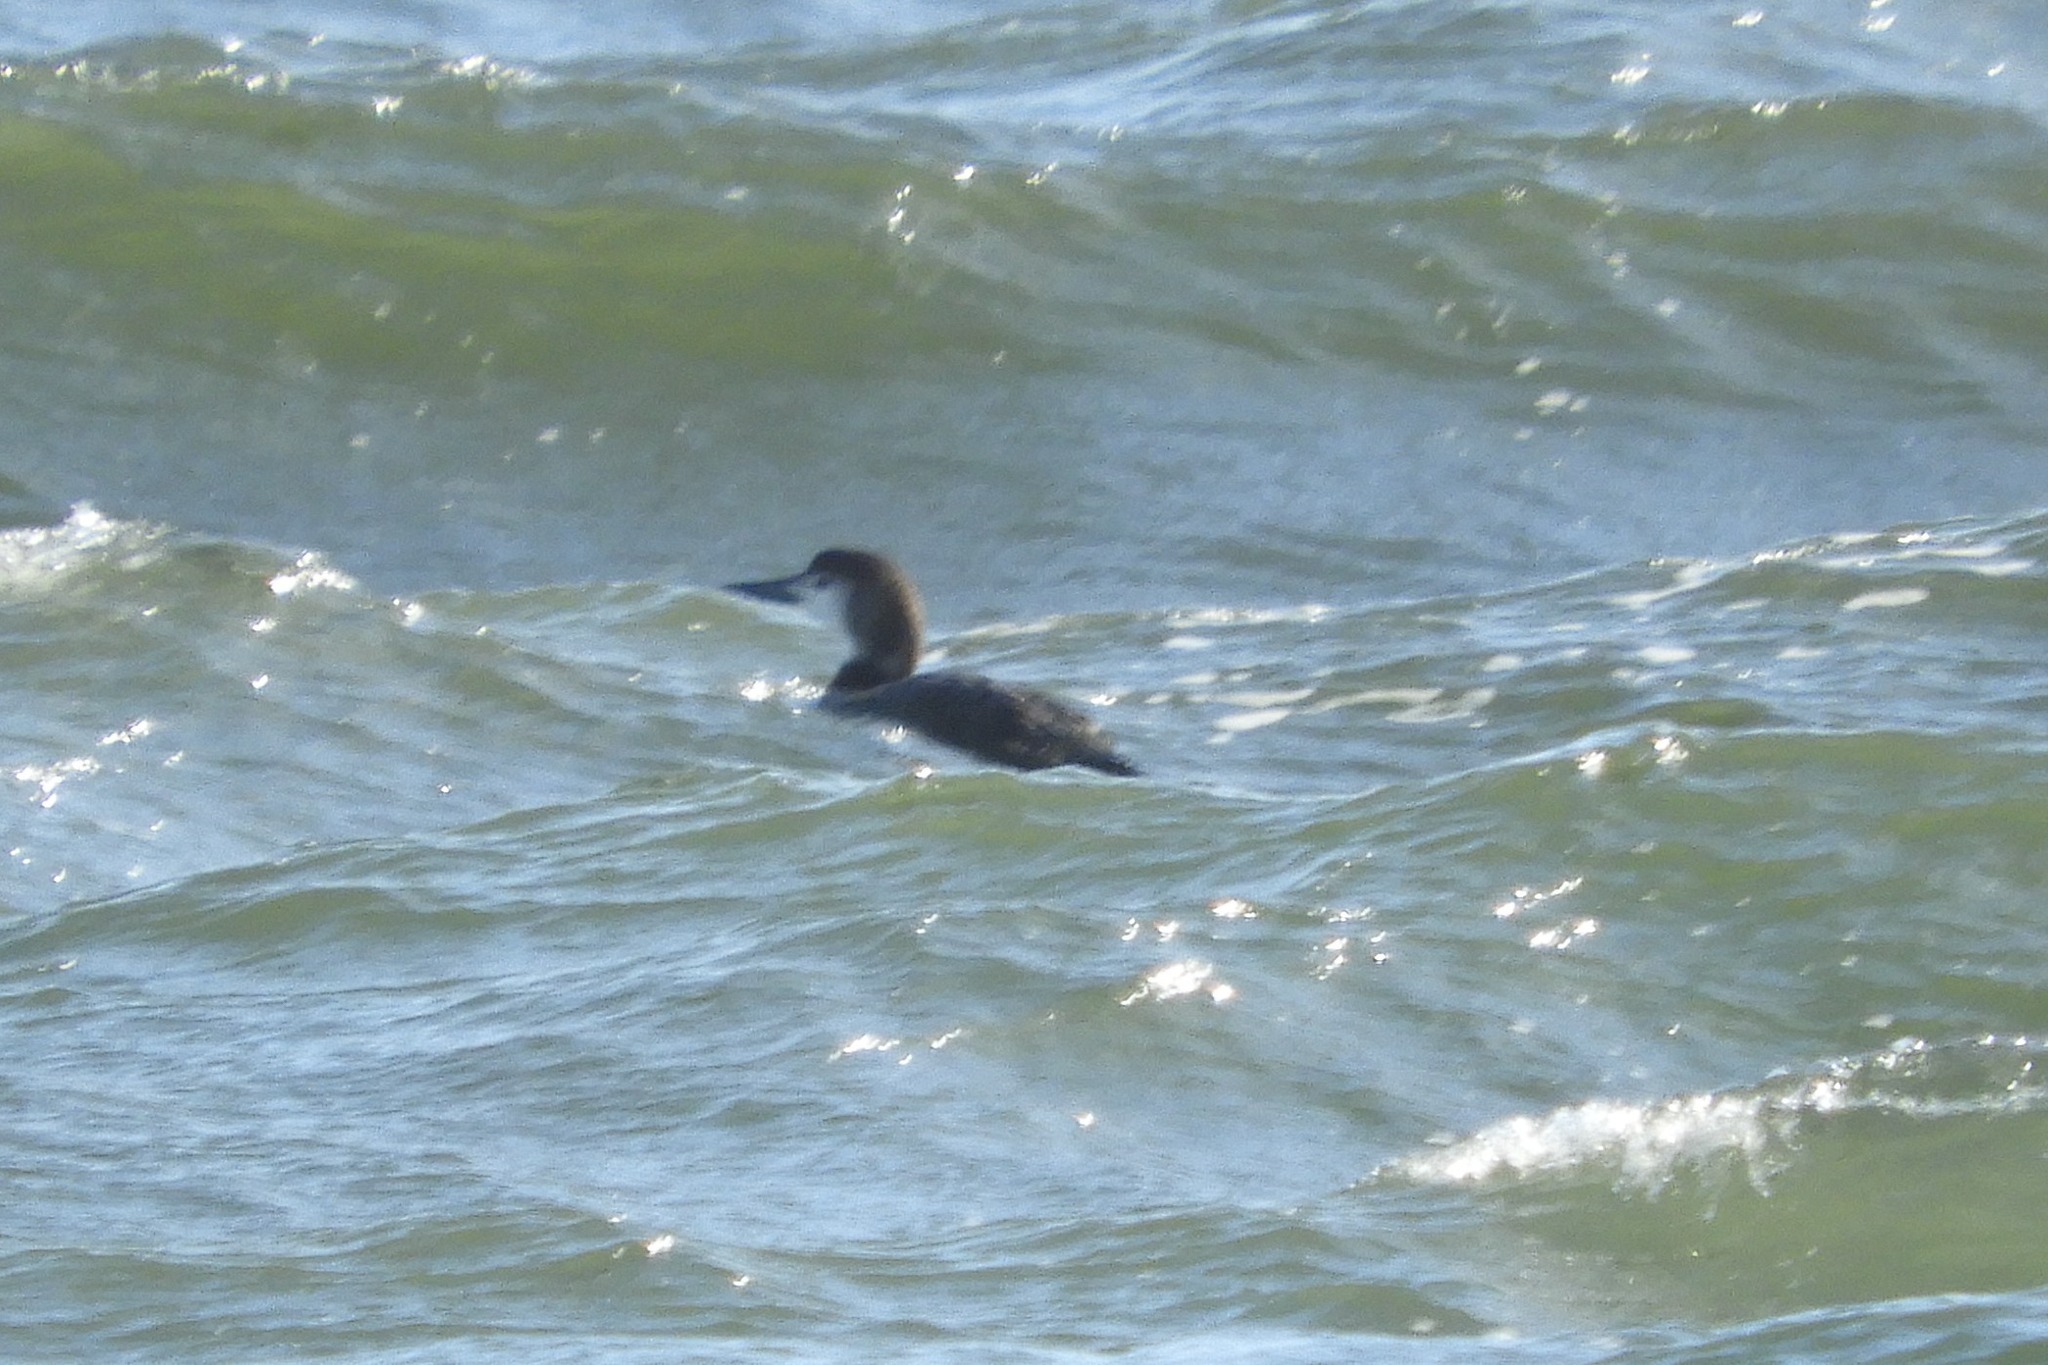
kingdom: Animalia
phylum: Chordata
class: Aves
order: Gaviiformes
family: Gaviidae
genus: Gavia
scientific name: Gavia immer
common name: Common loon
